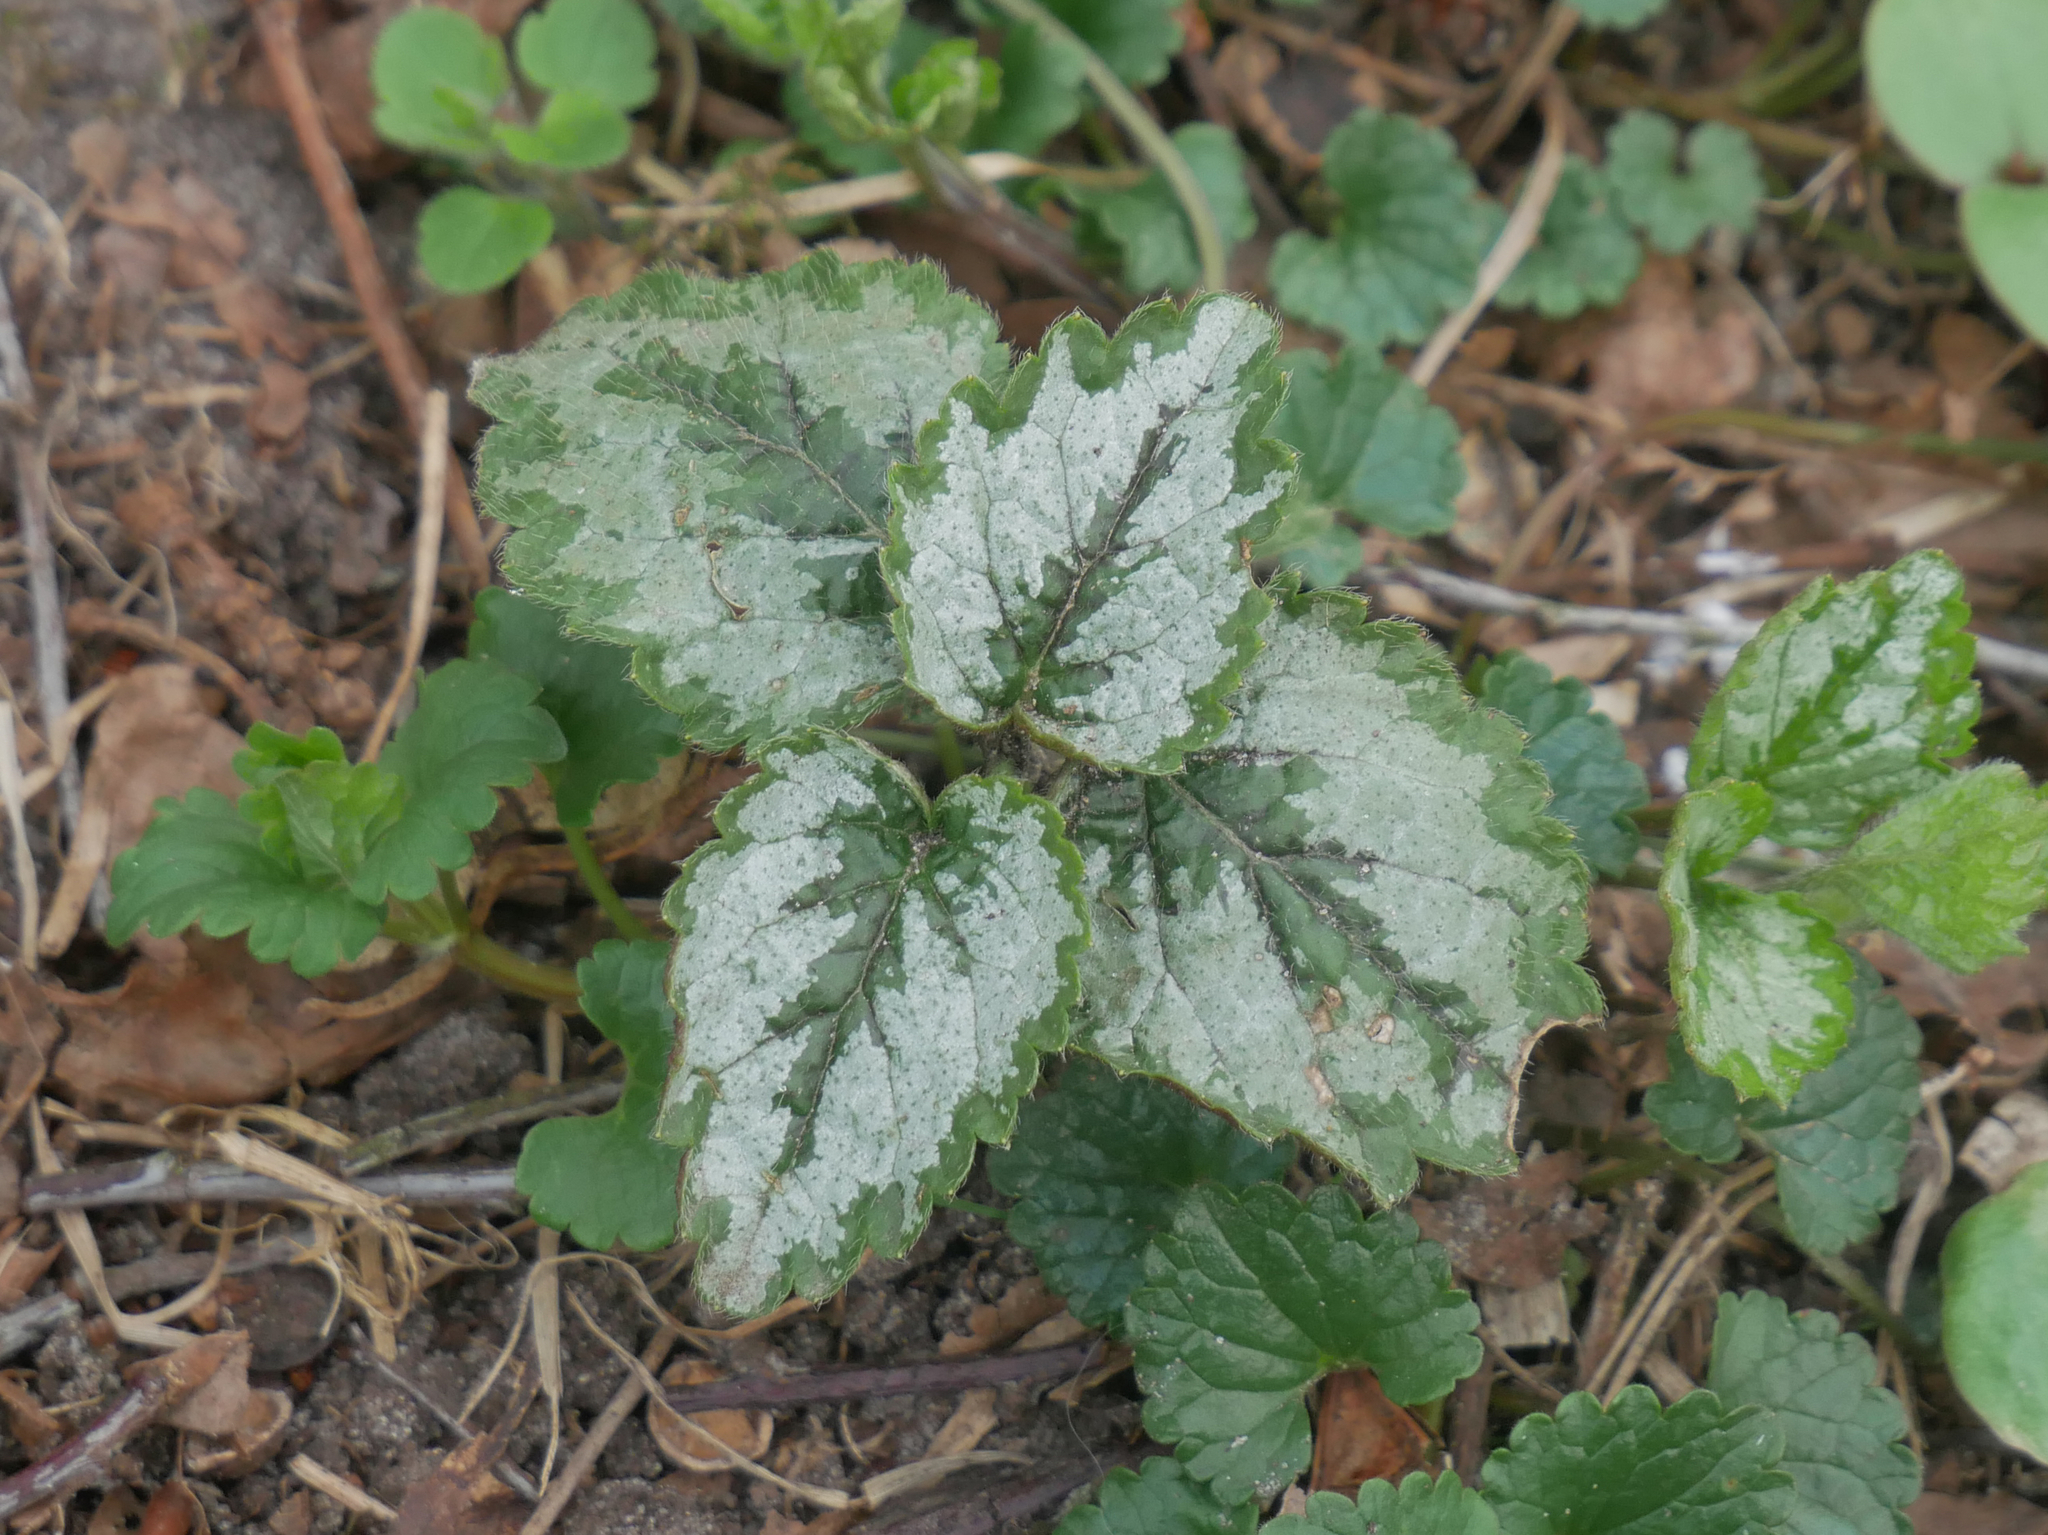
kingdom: Plantae
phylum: Tracheophyta
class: Magnoliopsida
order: Lamiales
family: Lamiaceae
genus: Lamium
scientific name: Lamium galeobdolon
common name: Yellow archangel
